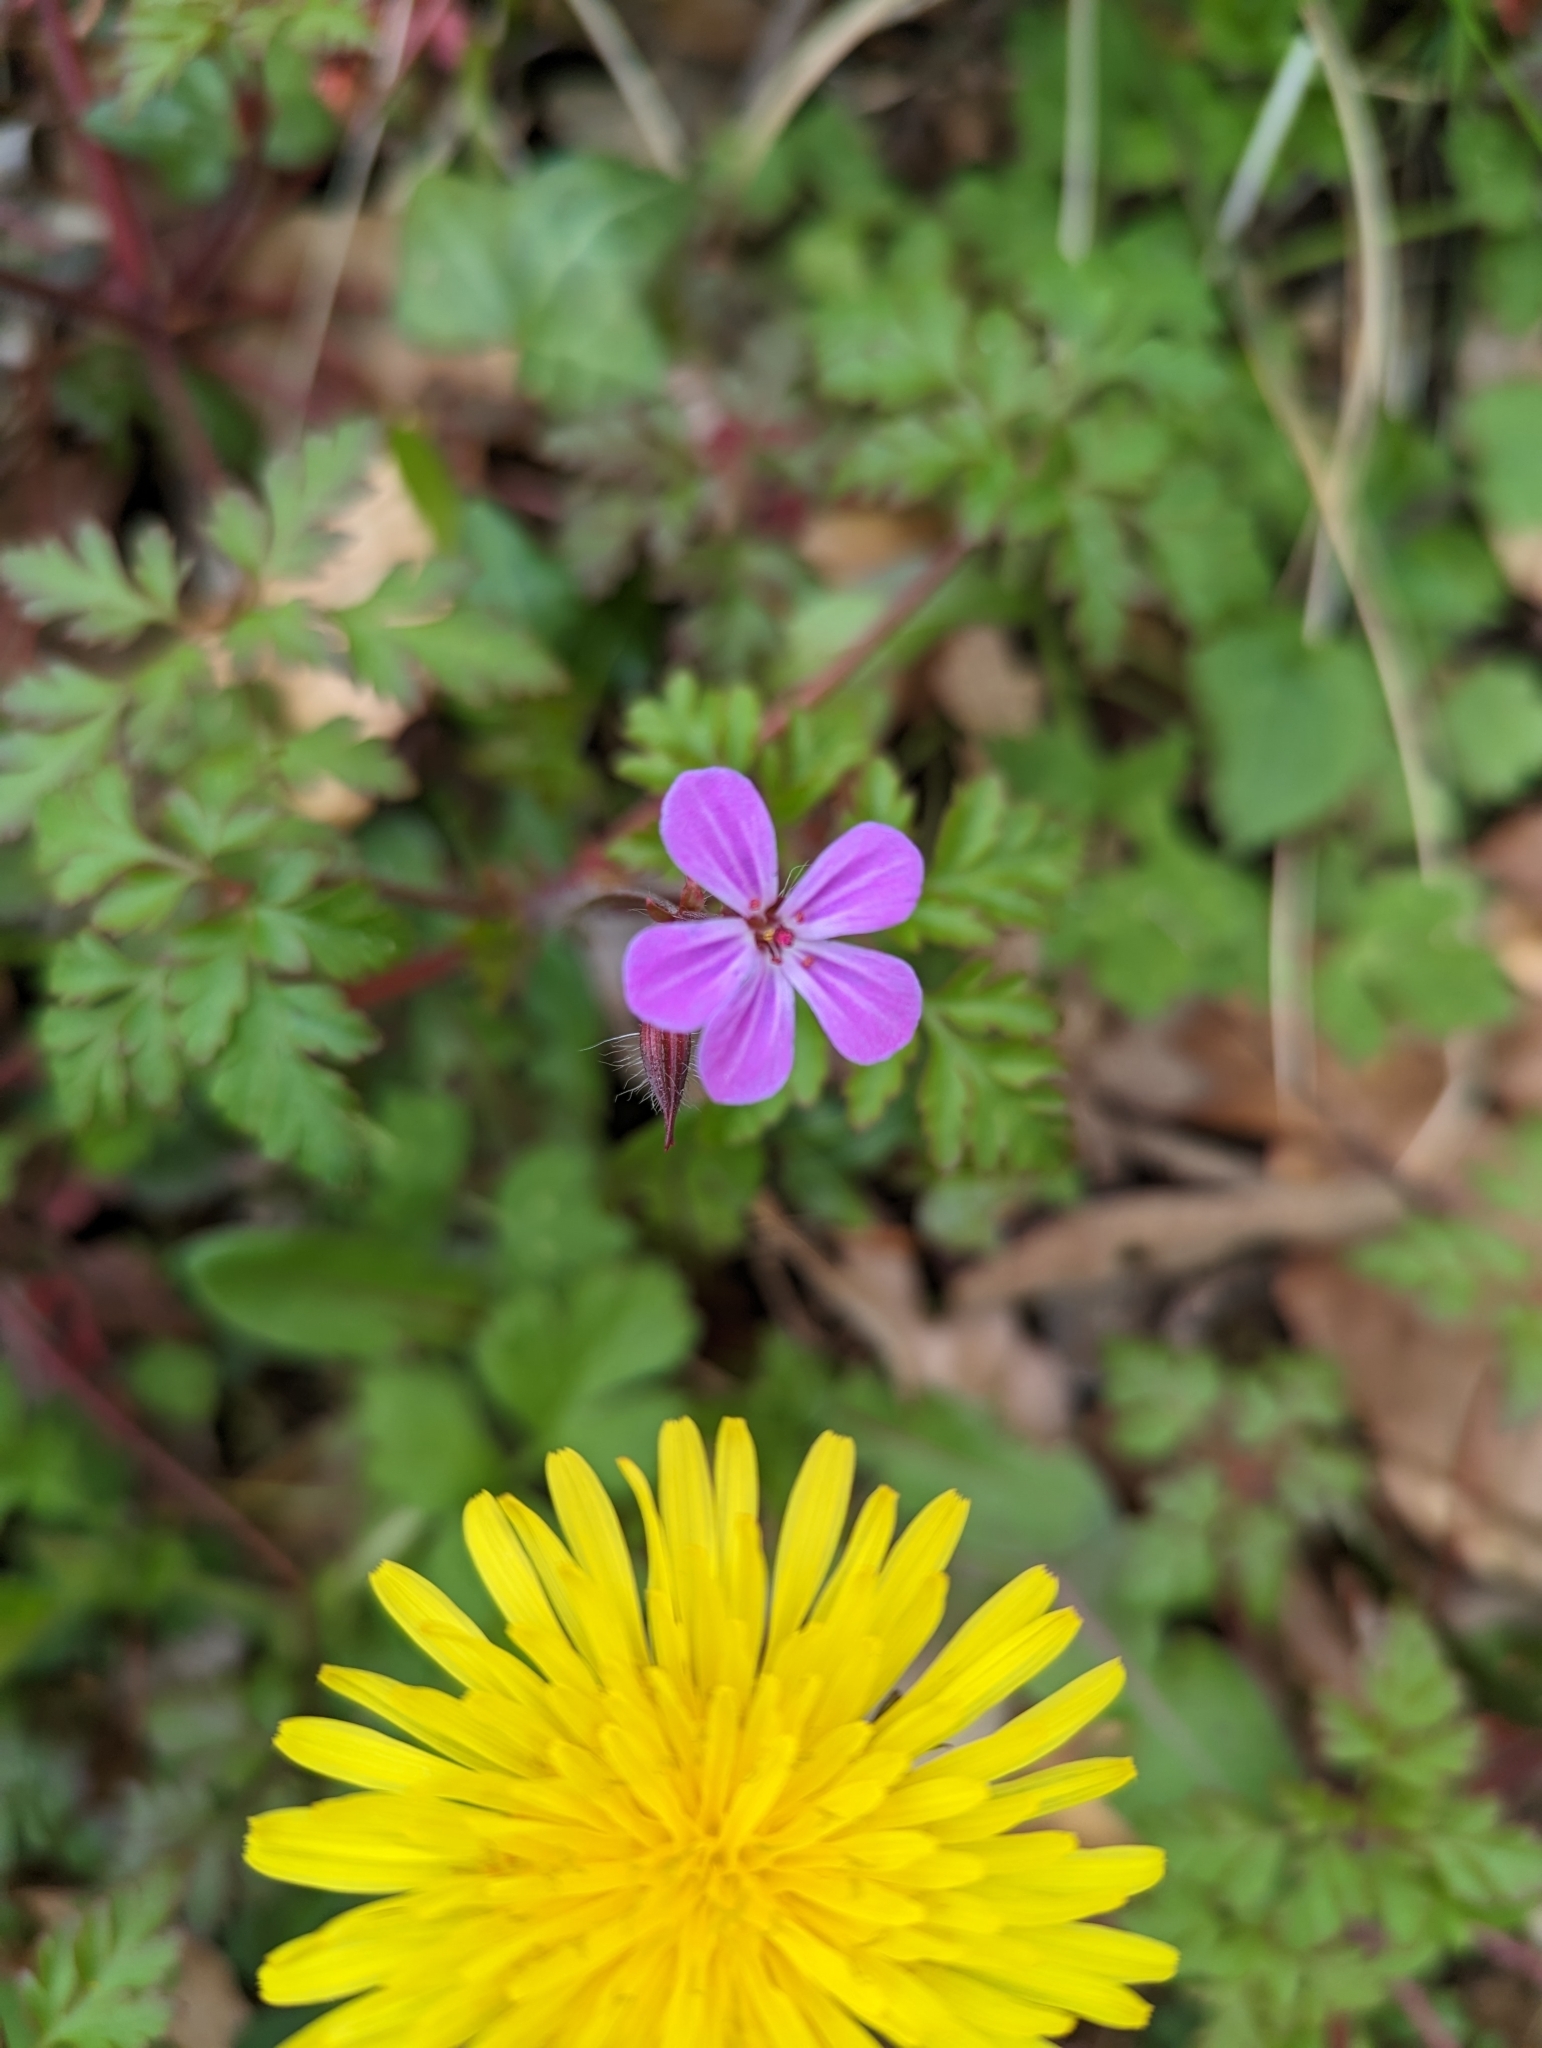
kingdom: Plantae
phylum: Tracheophyta
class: Magnoliopsida
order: Geraniales
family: Geraniaceae
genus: Geranium
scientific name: Geranium robertianum
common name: Herb-robert
